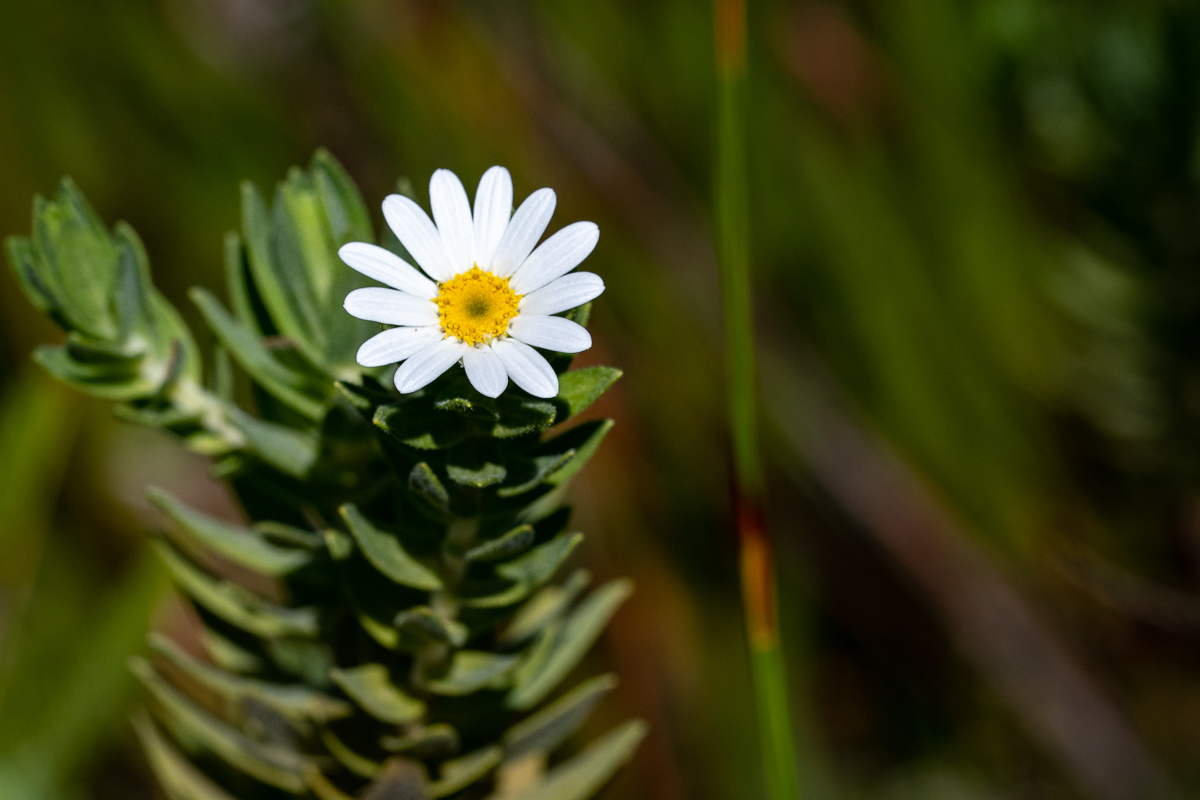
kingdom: Plantae
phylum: Tracheophyta
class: Magnoliopsida
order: Asterales
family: Asteraceae
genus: Osmitopsis
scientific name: Osmitopsis asteriscoides
